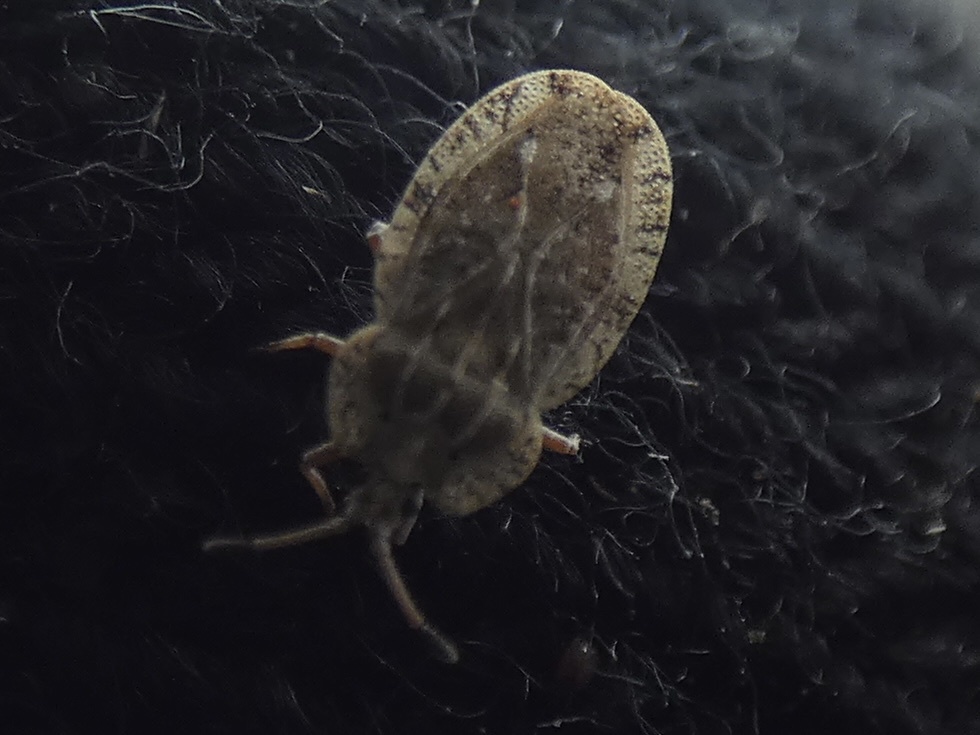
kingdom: Animalia
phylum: Arthropoda
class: Insecta
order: Hemiptera
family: Tingidae
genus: Tingis
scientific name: Tingis ampliata
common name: Creeping thistle lacebug
